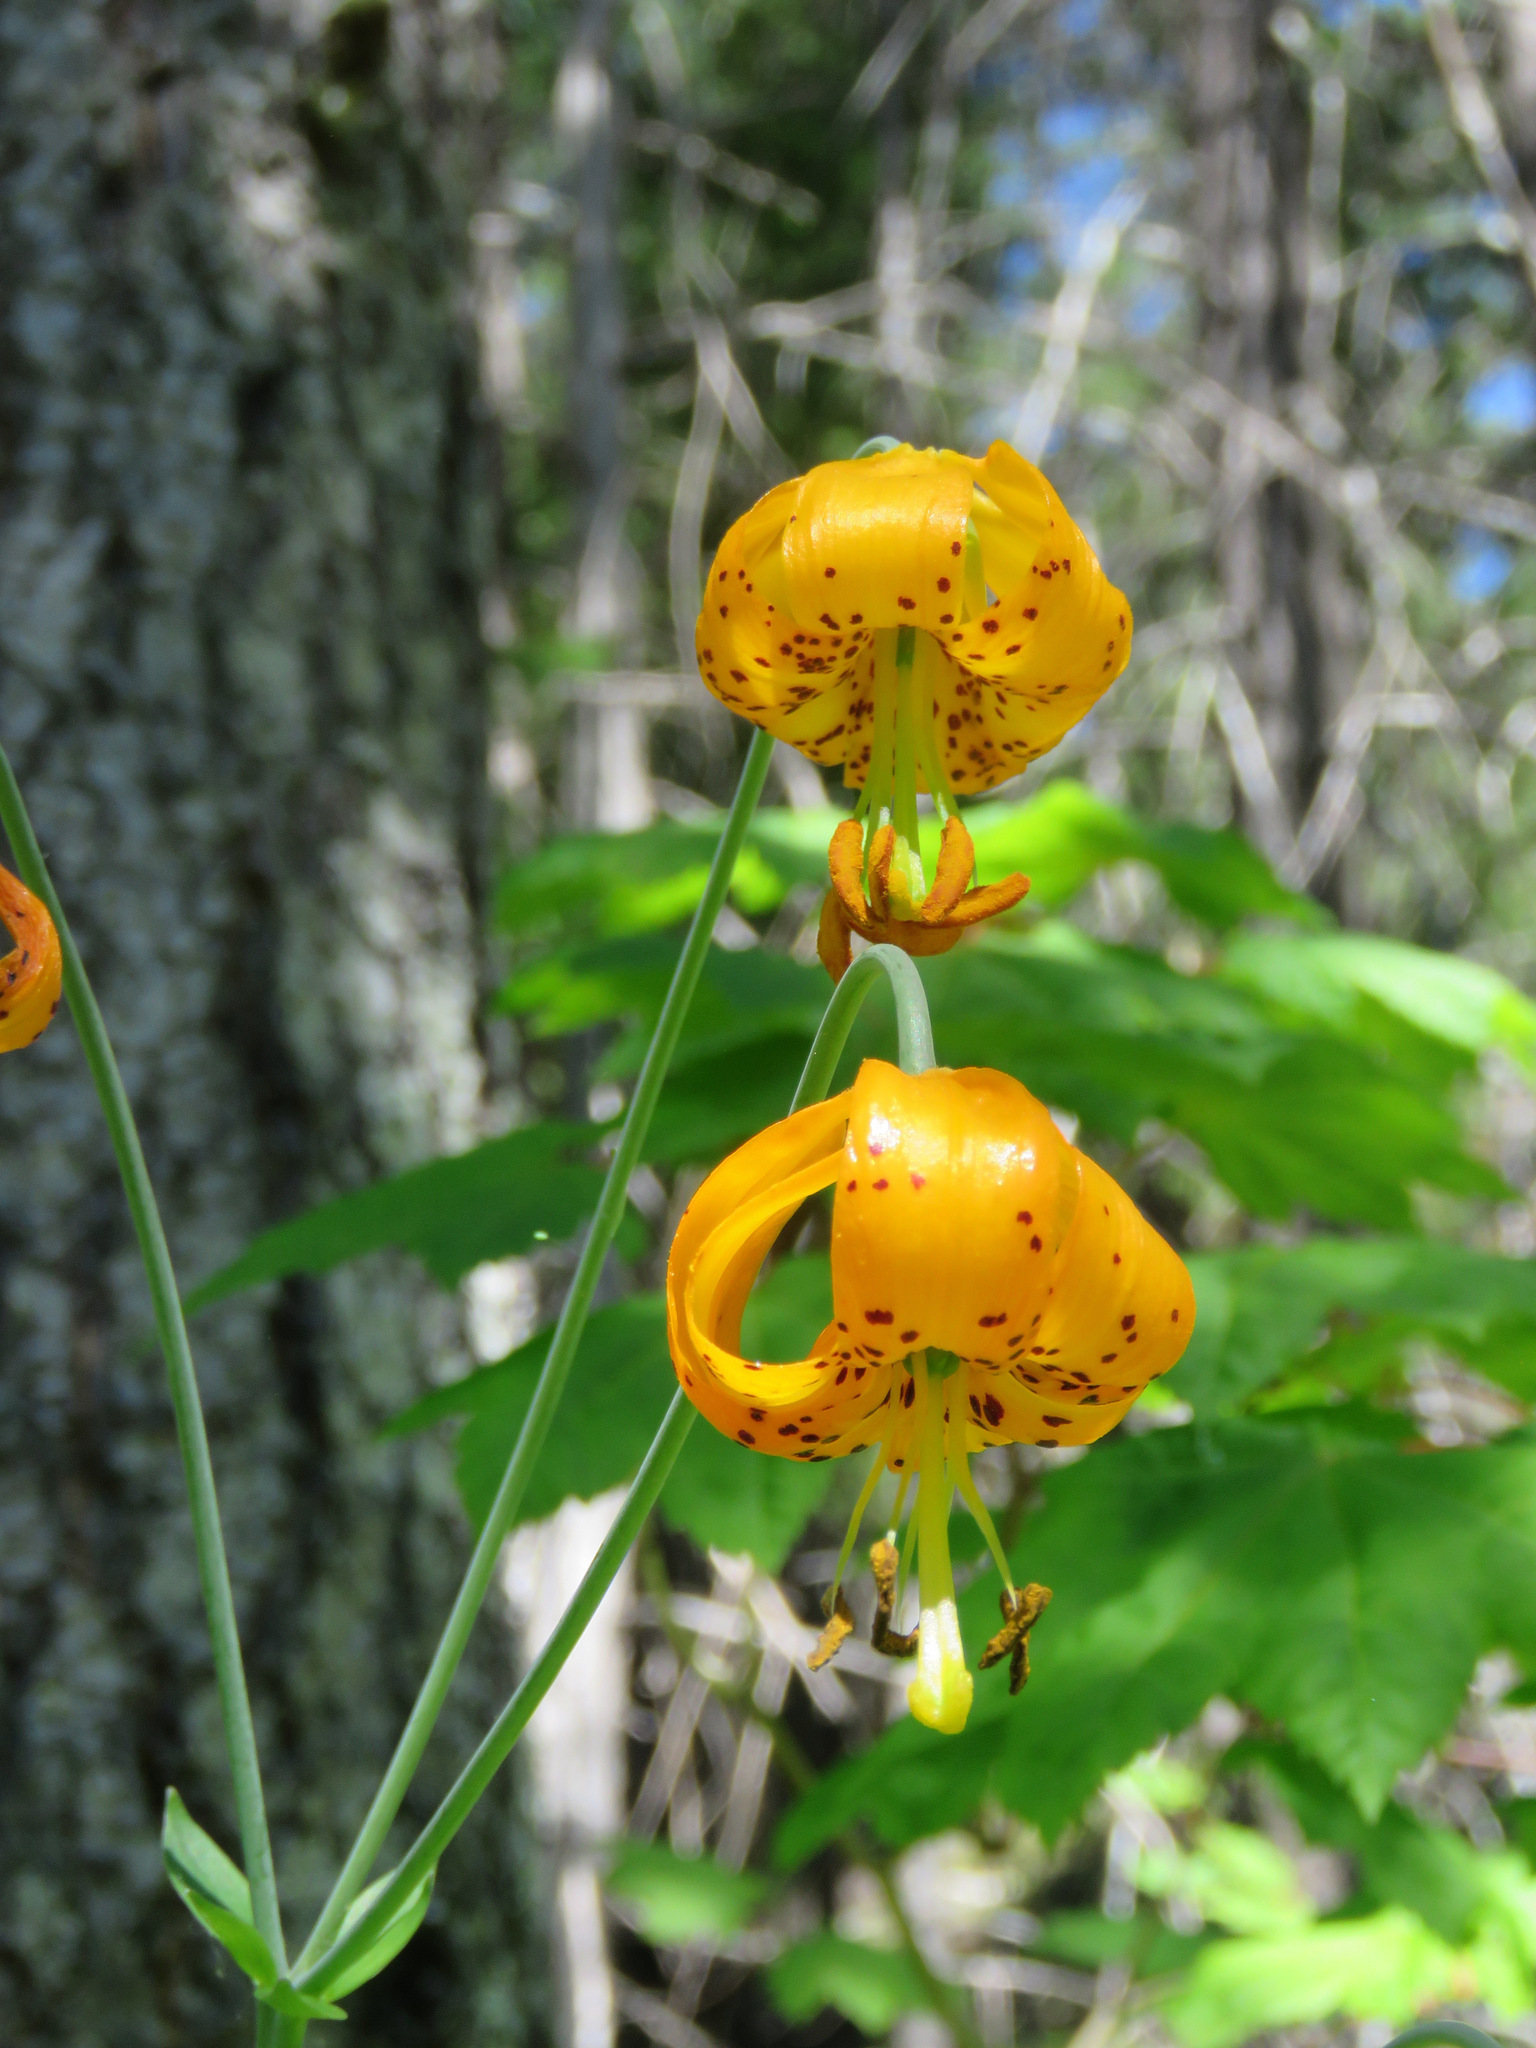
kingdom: Plantae
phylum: Tracheophyta
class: Liliopsida
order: Liliales
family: Liliaceae
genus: Lilium
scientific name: Lilium columbianum
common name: Columbia lily
